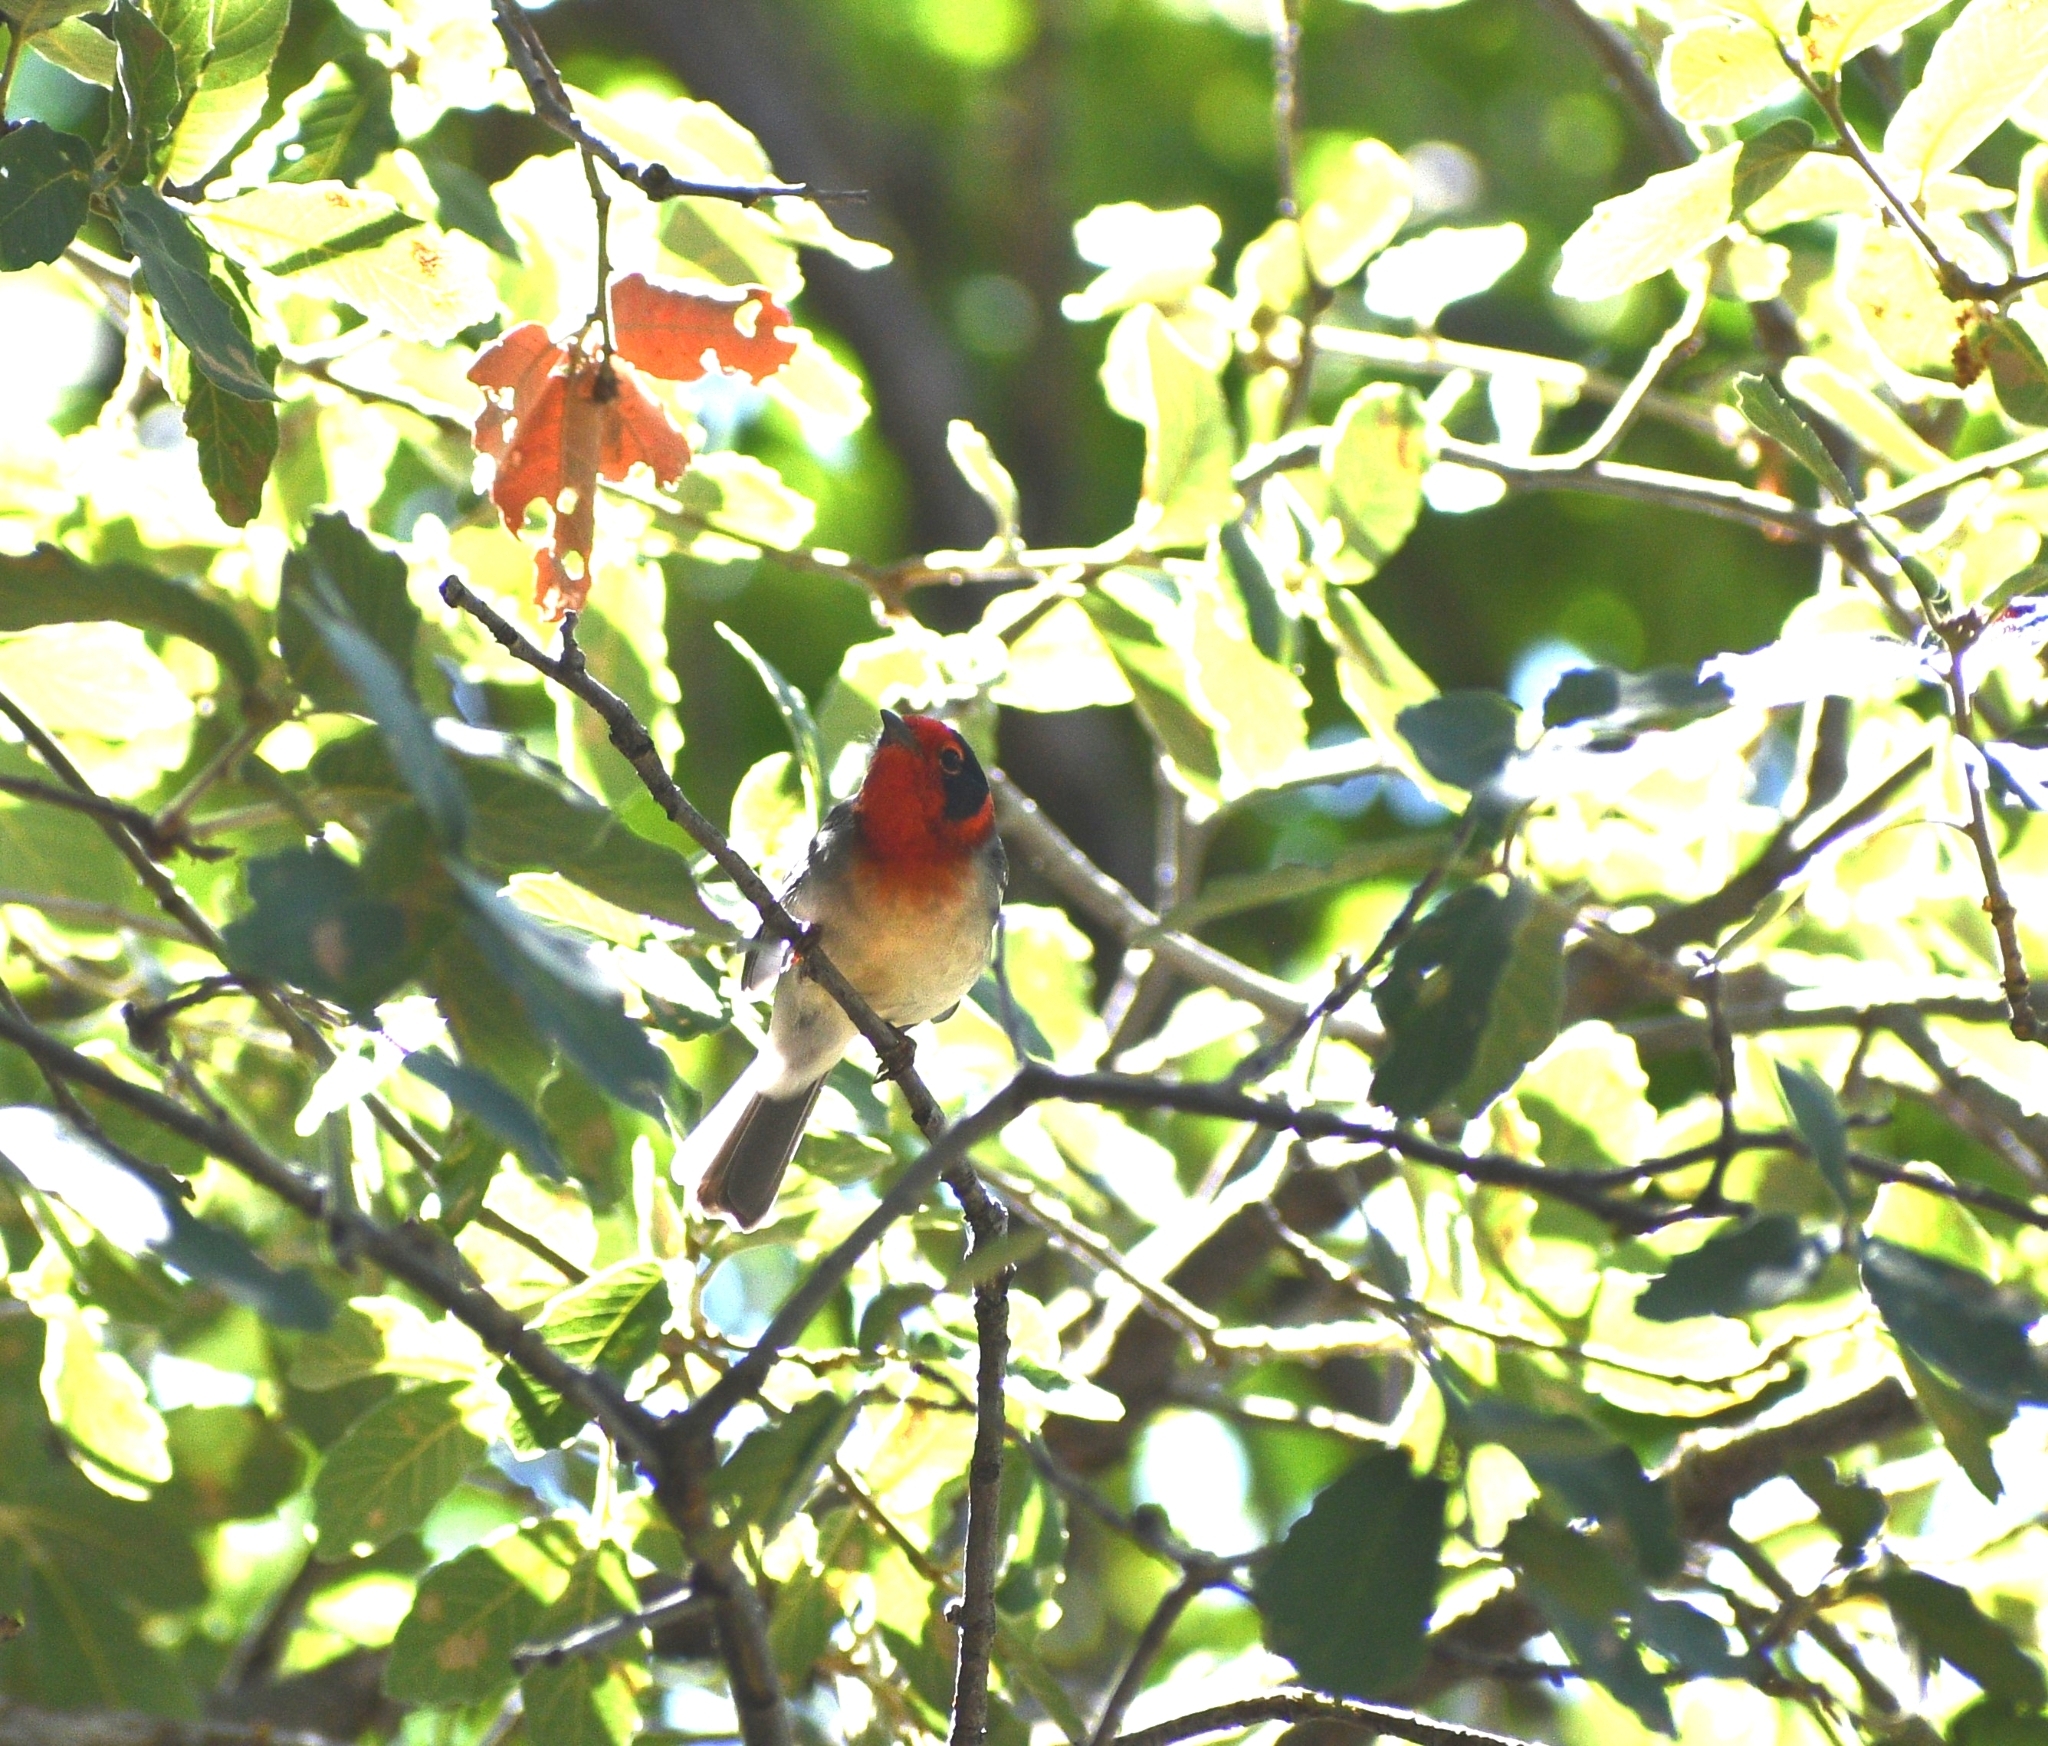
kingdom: Animalia
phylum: Chordata
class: Aves
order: Passeriformes
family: Parulidae
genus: Cardellina
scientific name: Cardellina rubrifrons
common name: Red-faced warbler
